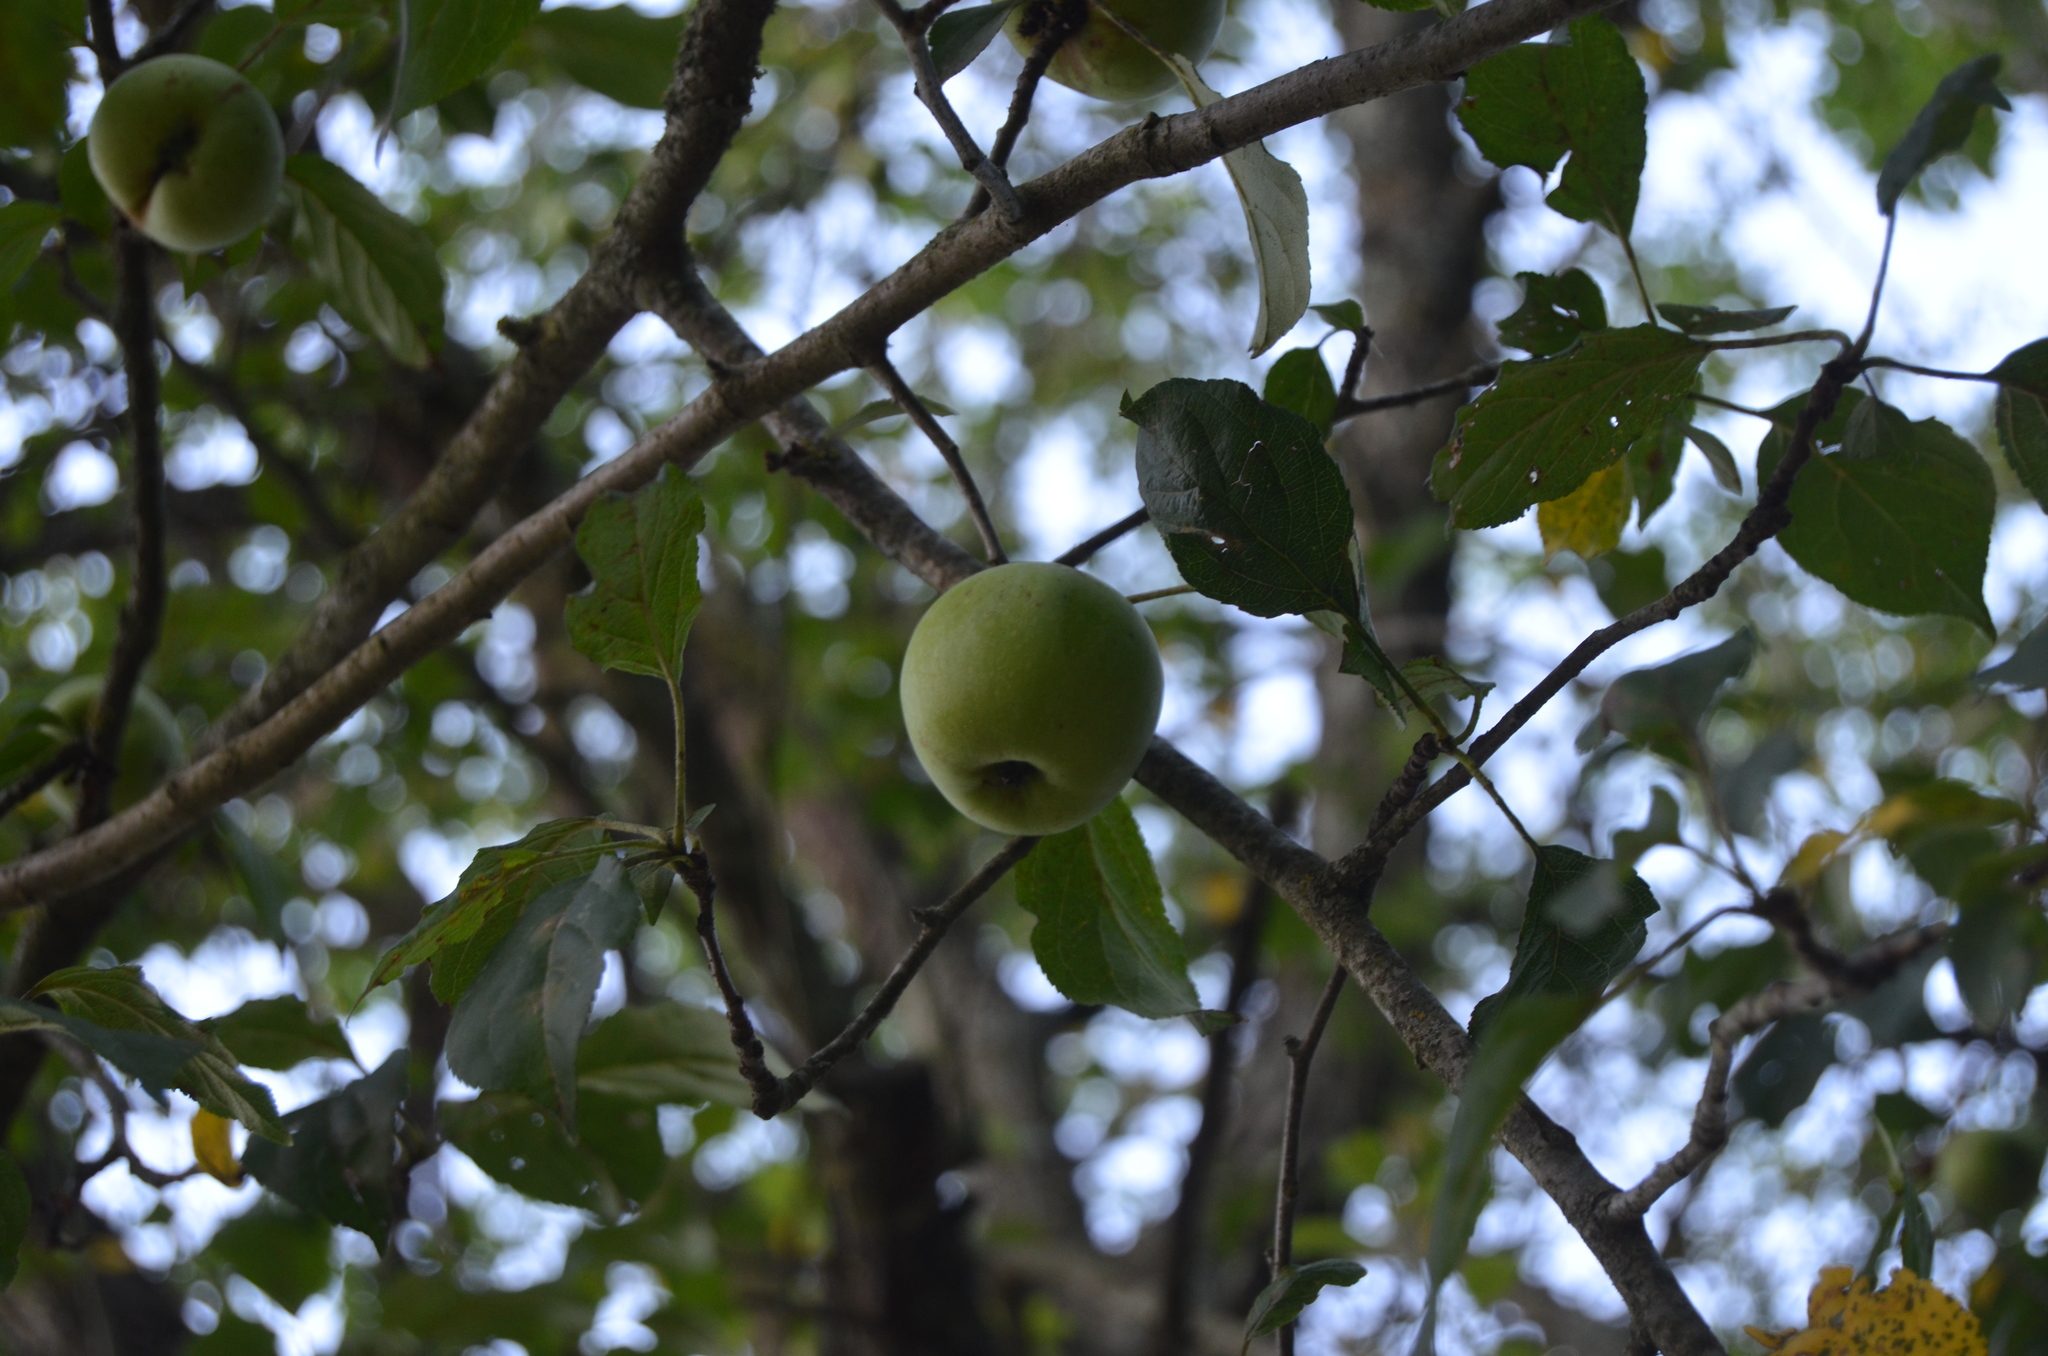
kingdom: Plantae
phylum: Tracheophyta
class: Magnoliopsida
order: Rosales
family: Rosaceae
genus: Malus
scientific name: Malus sylvestris
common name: Crab apple
